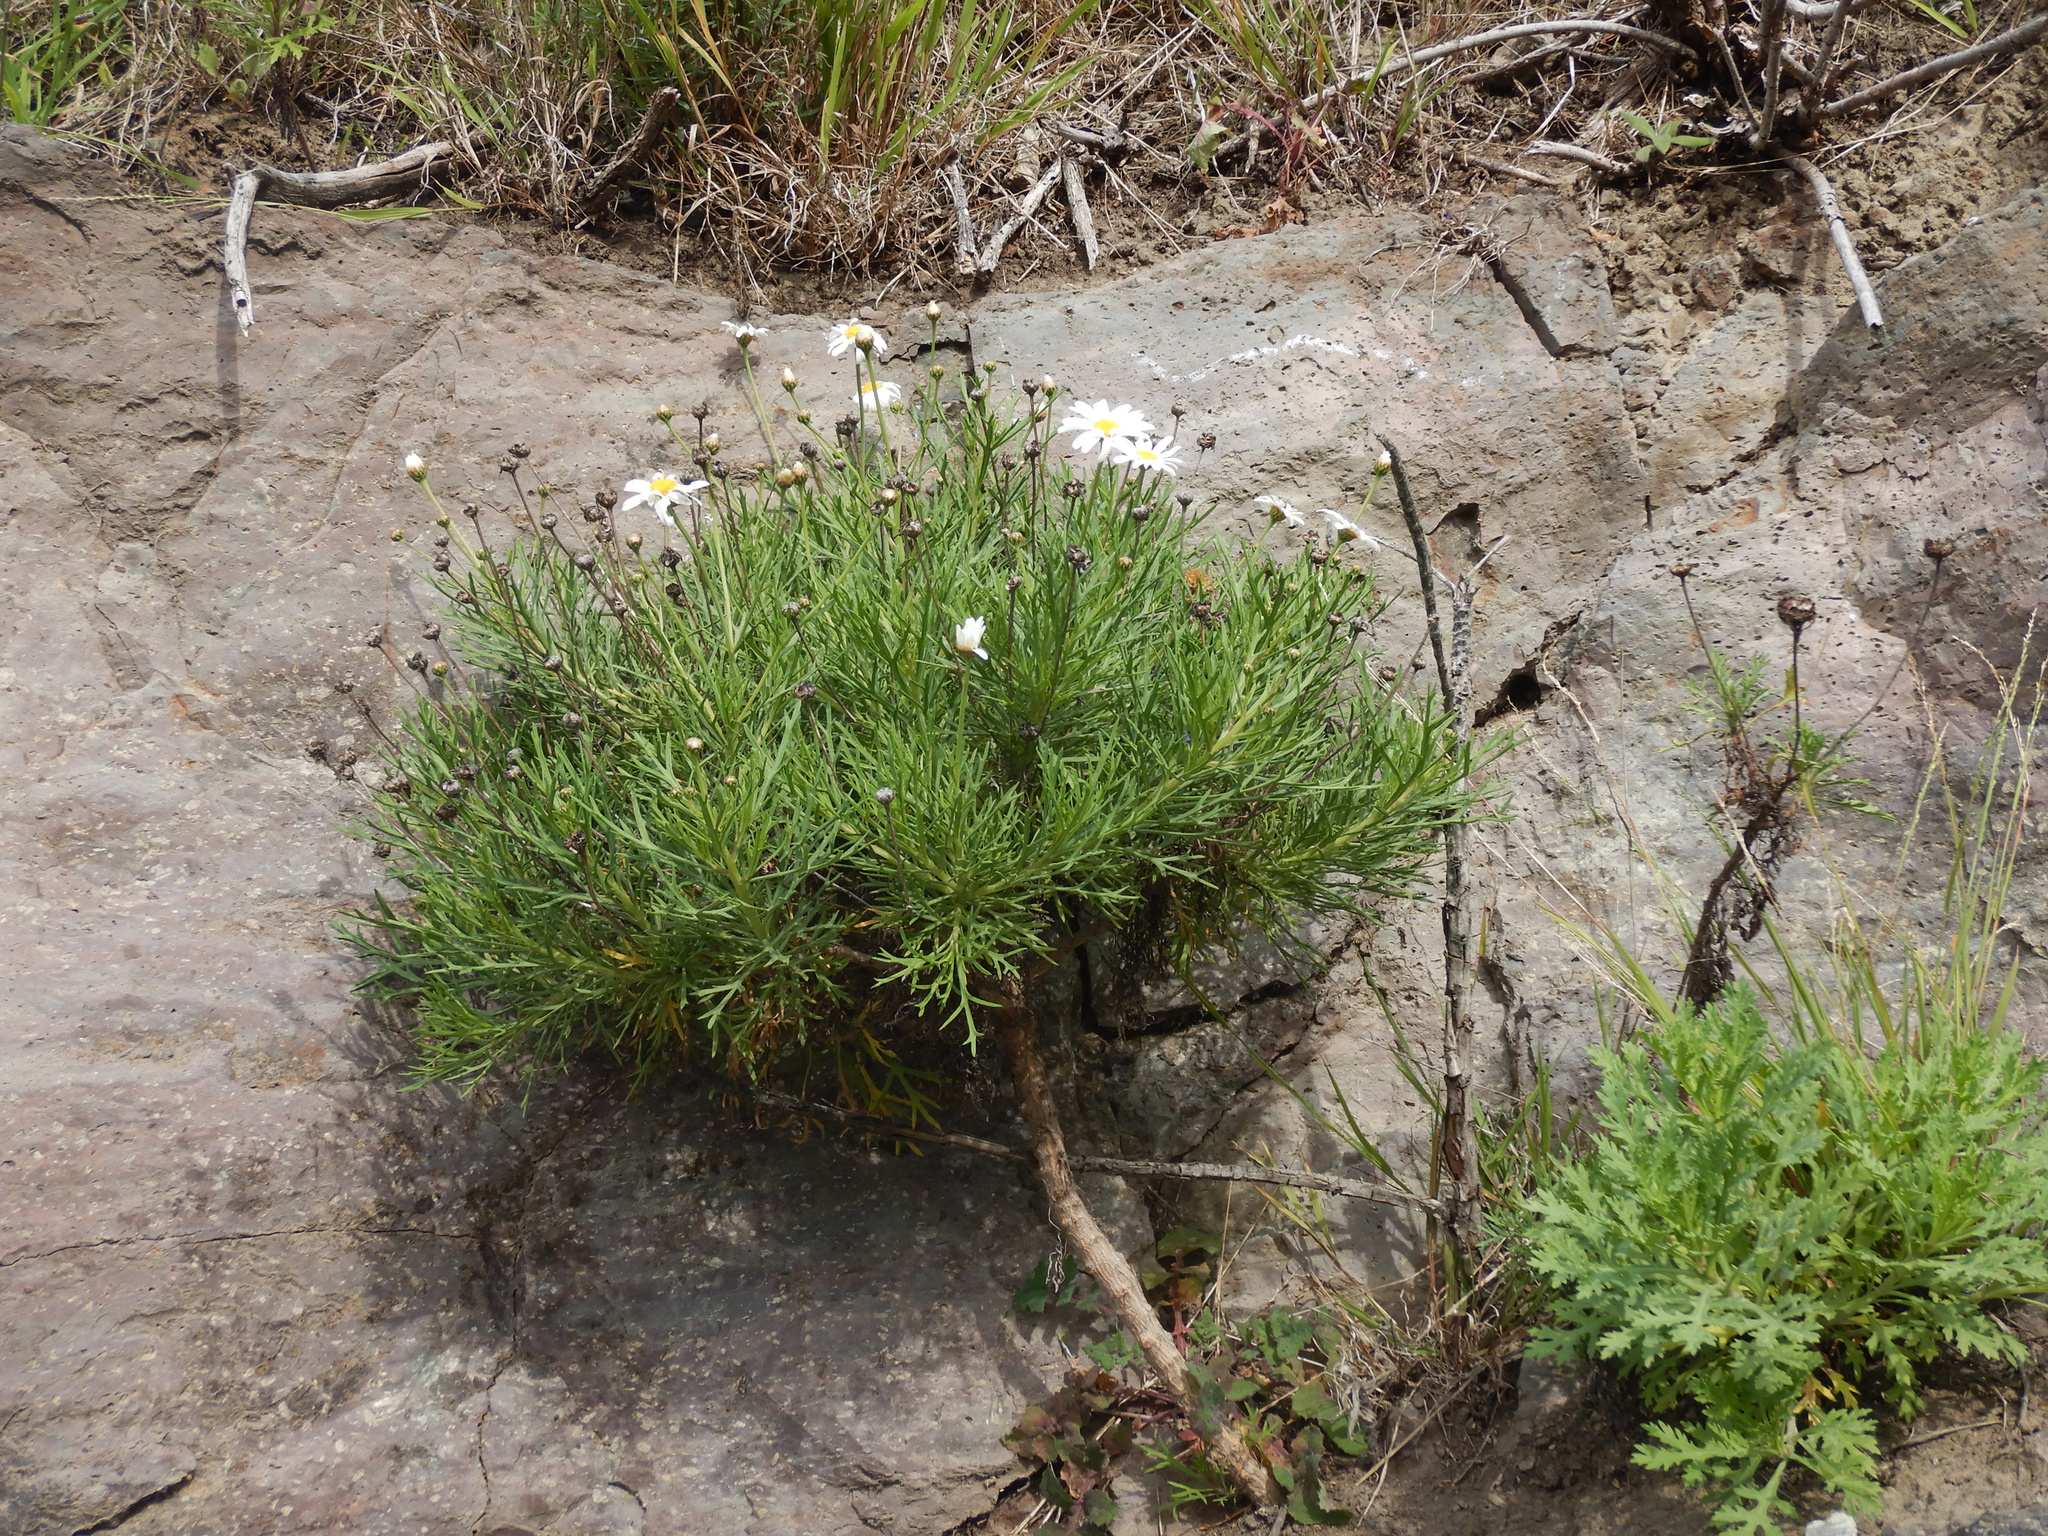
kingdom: Plantae
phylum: Tracheophyta
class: Magnoliopsida
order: Asterales
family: Asteraceae
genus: Argyranthemum
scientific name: Argyranthemum frutescens
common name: Paris daisy
